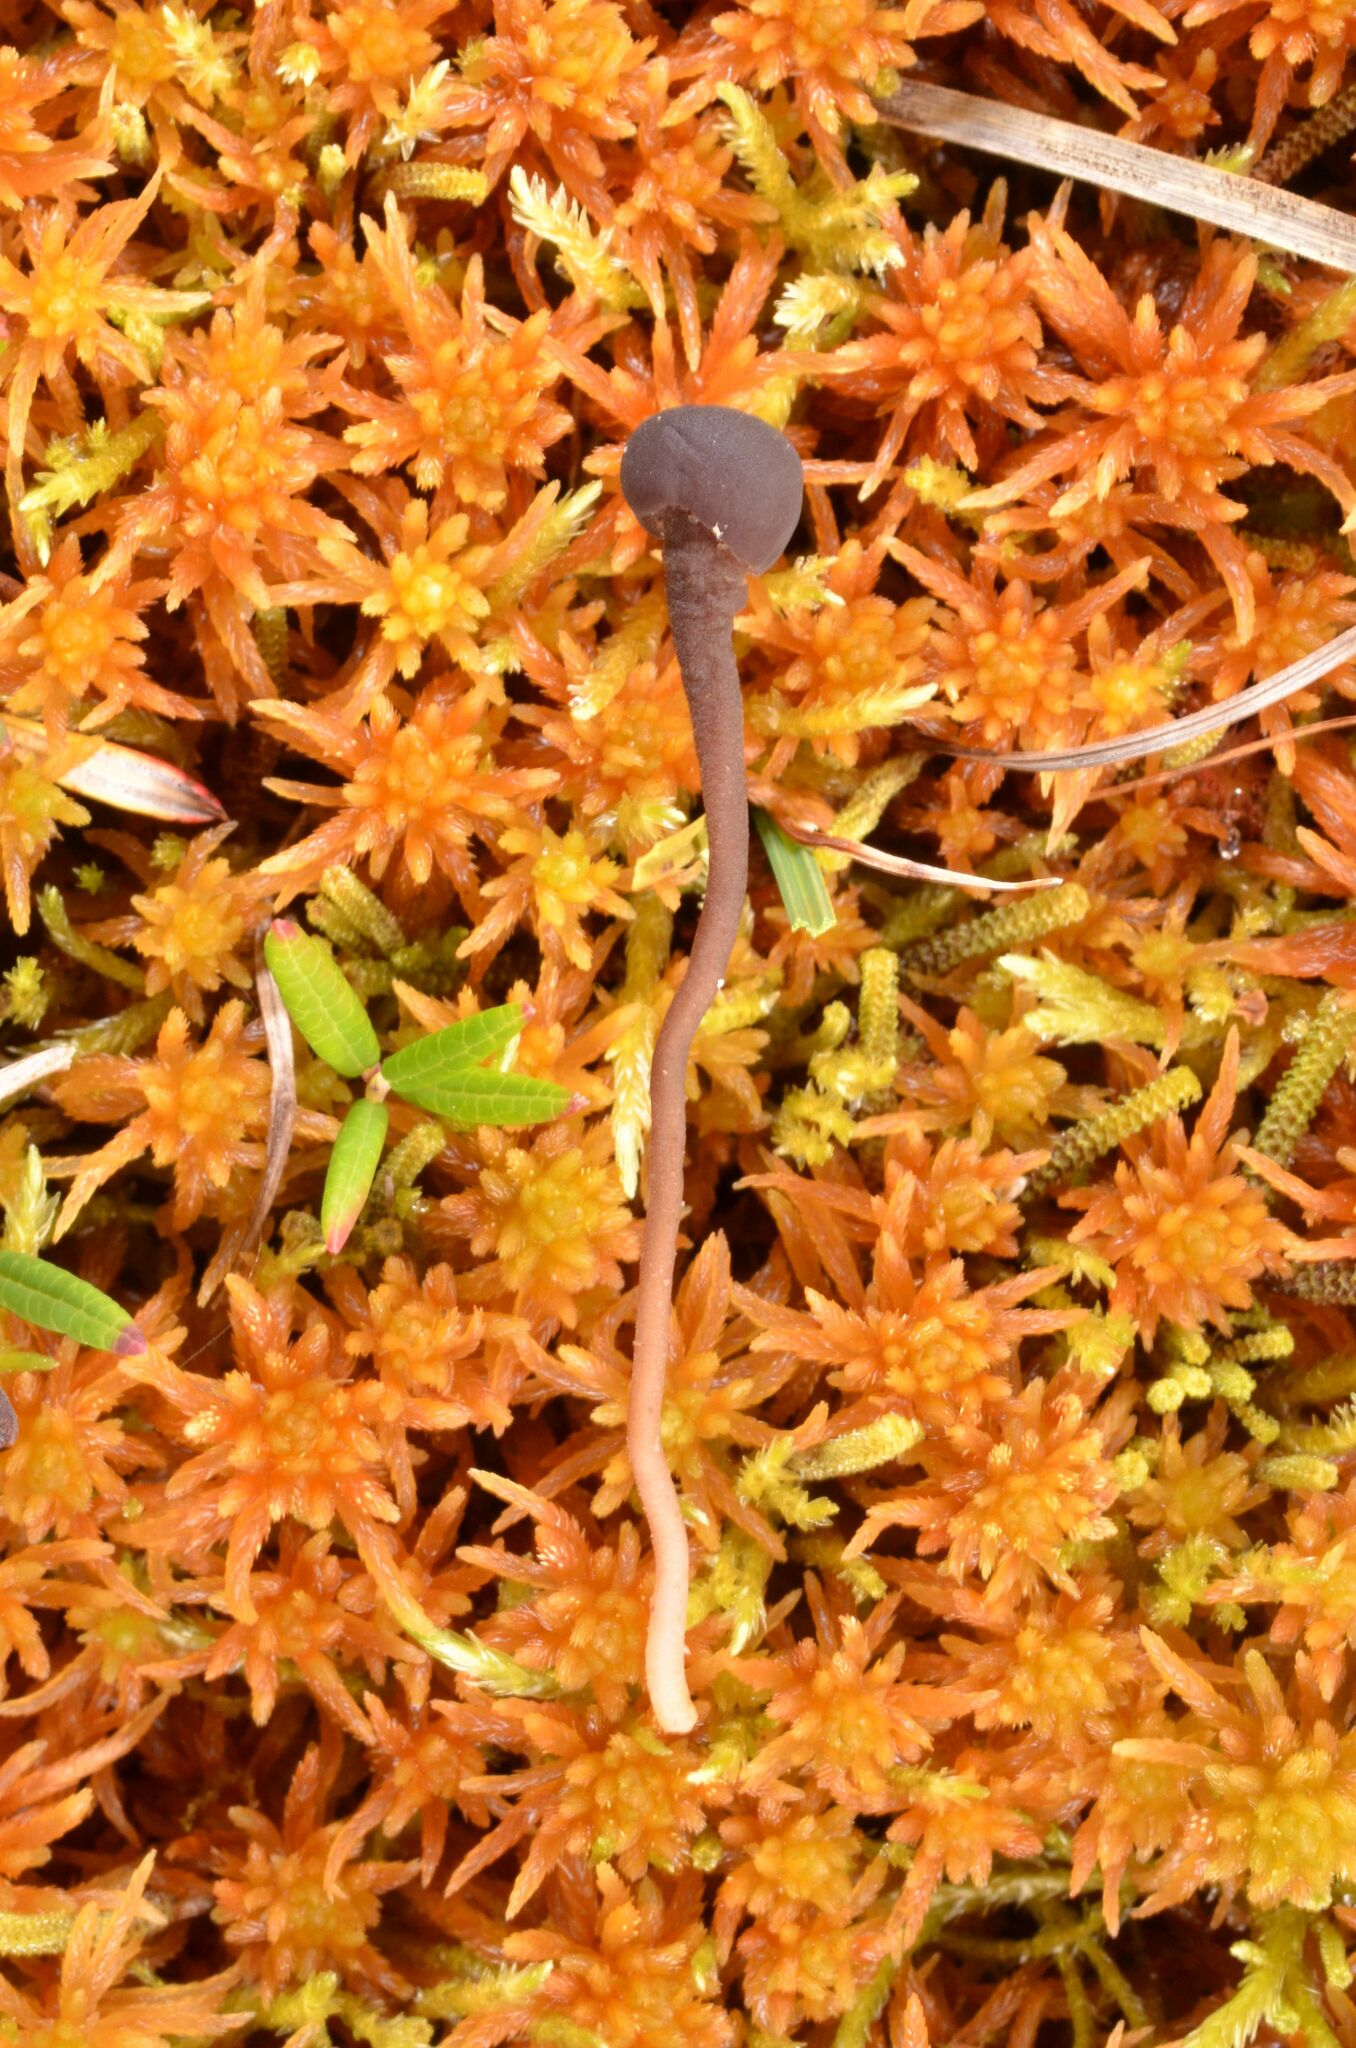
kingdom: Fungi
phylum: Ascomycota
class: Geoglossomycetes
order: Geoglossales
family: Geoglossaceae
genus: Sarcoleotia
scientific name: Sarcoleotia globosa
